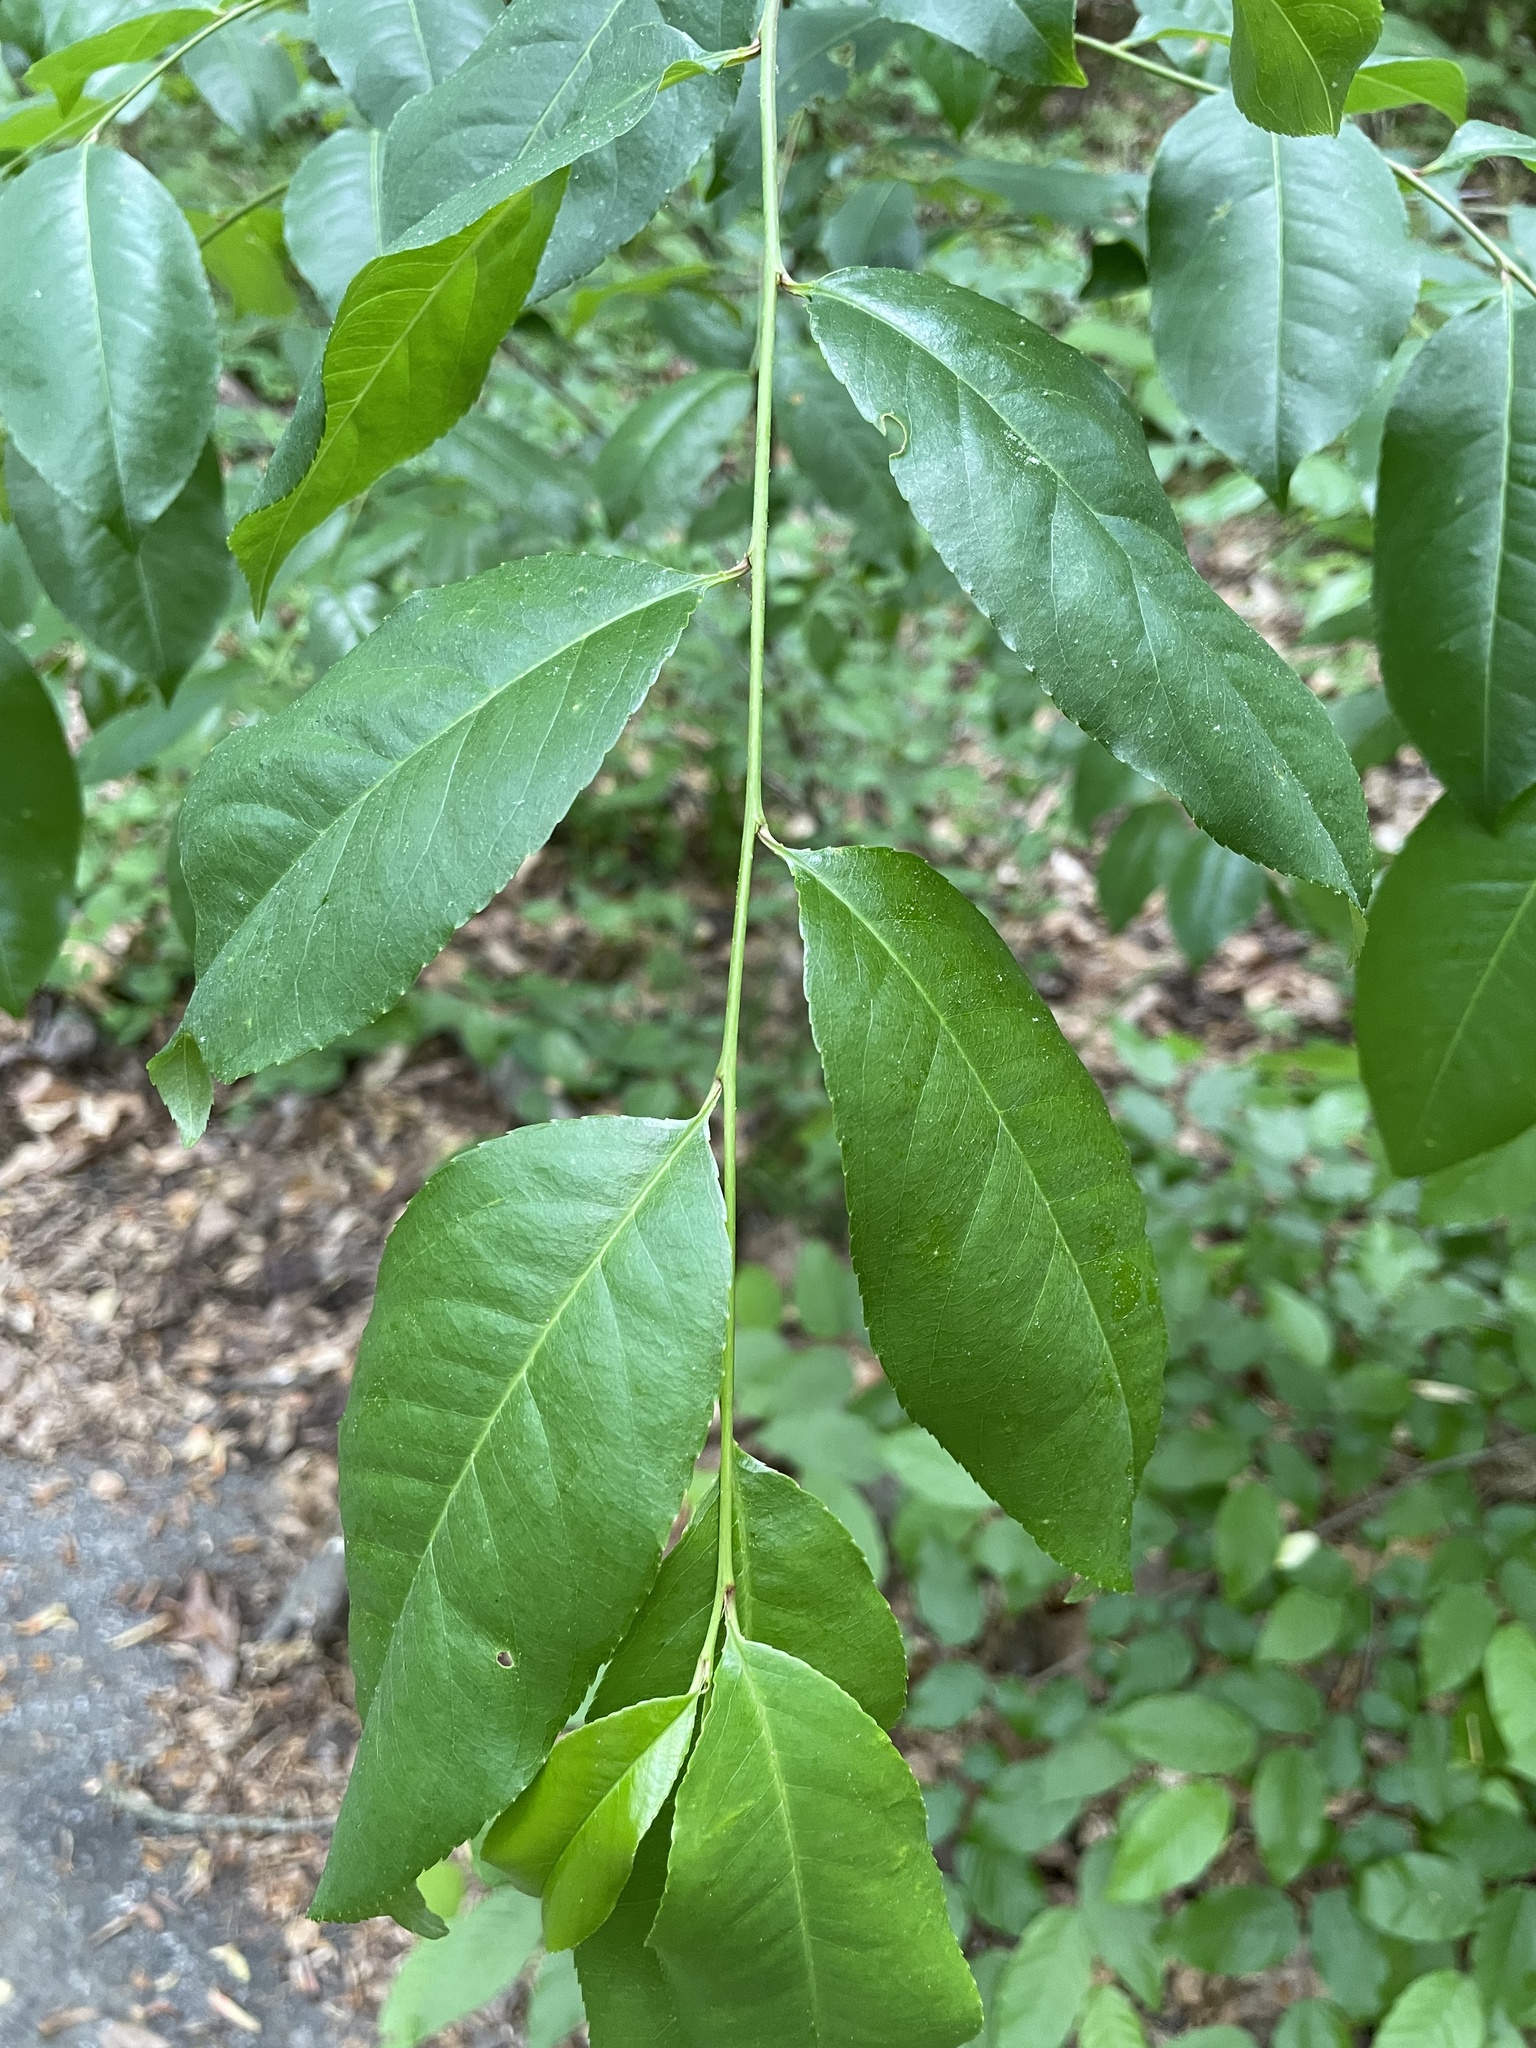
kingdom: Plantae
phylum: Tracheophyta
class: Magnoliopsida
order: Rosales
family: Rosaceae
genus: Prunus
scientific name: Prunus serotina
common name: Black cherry
